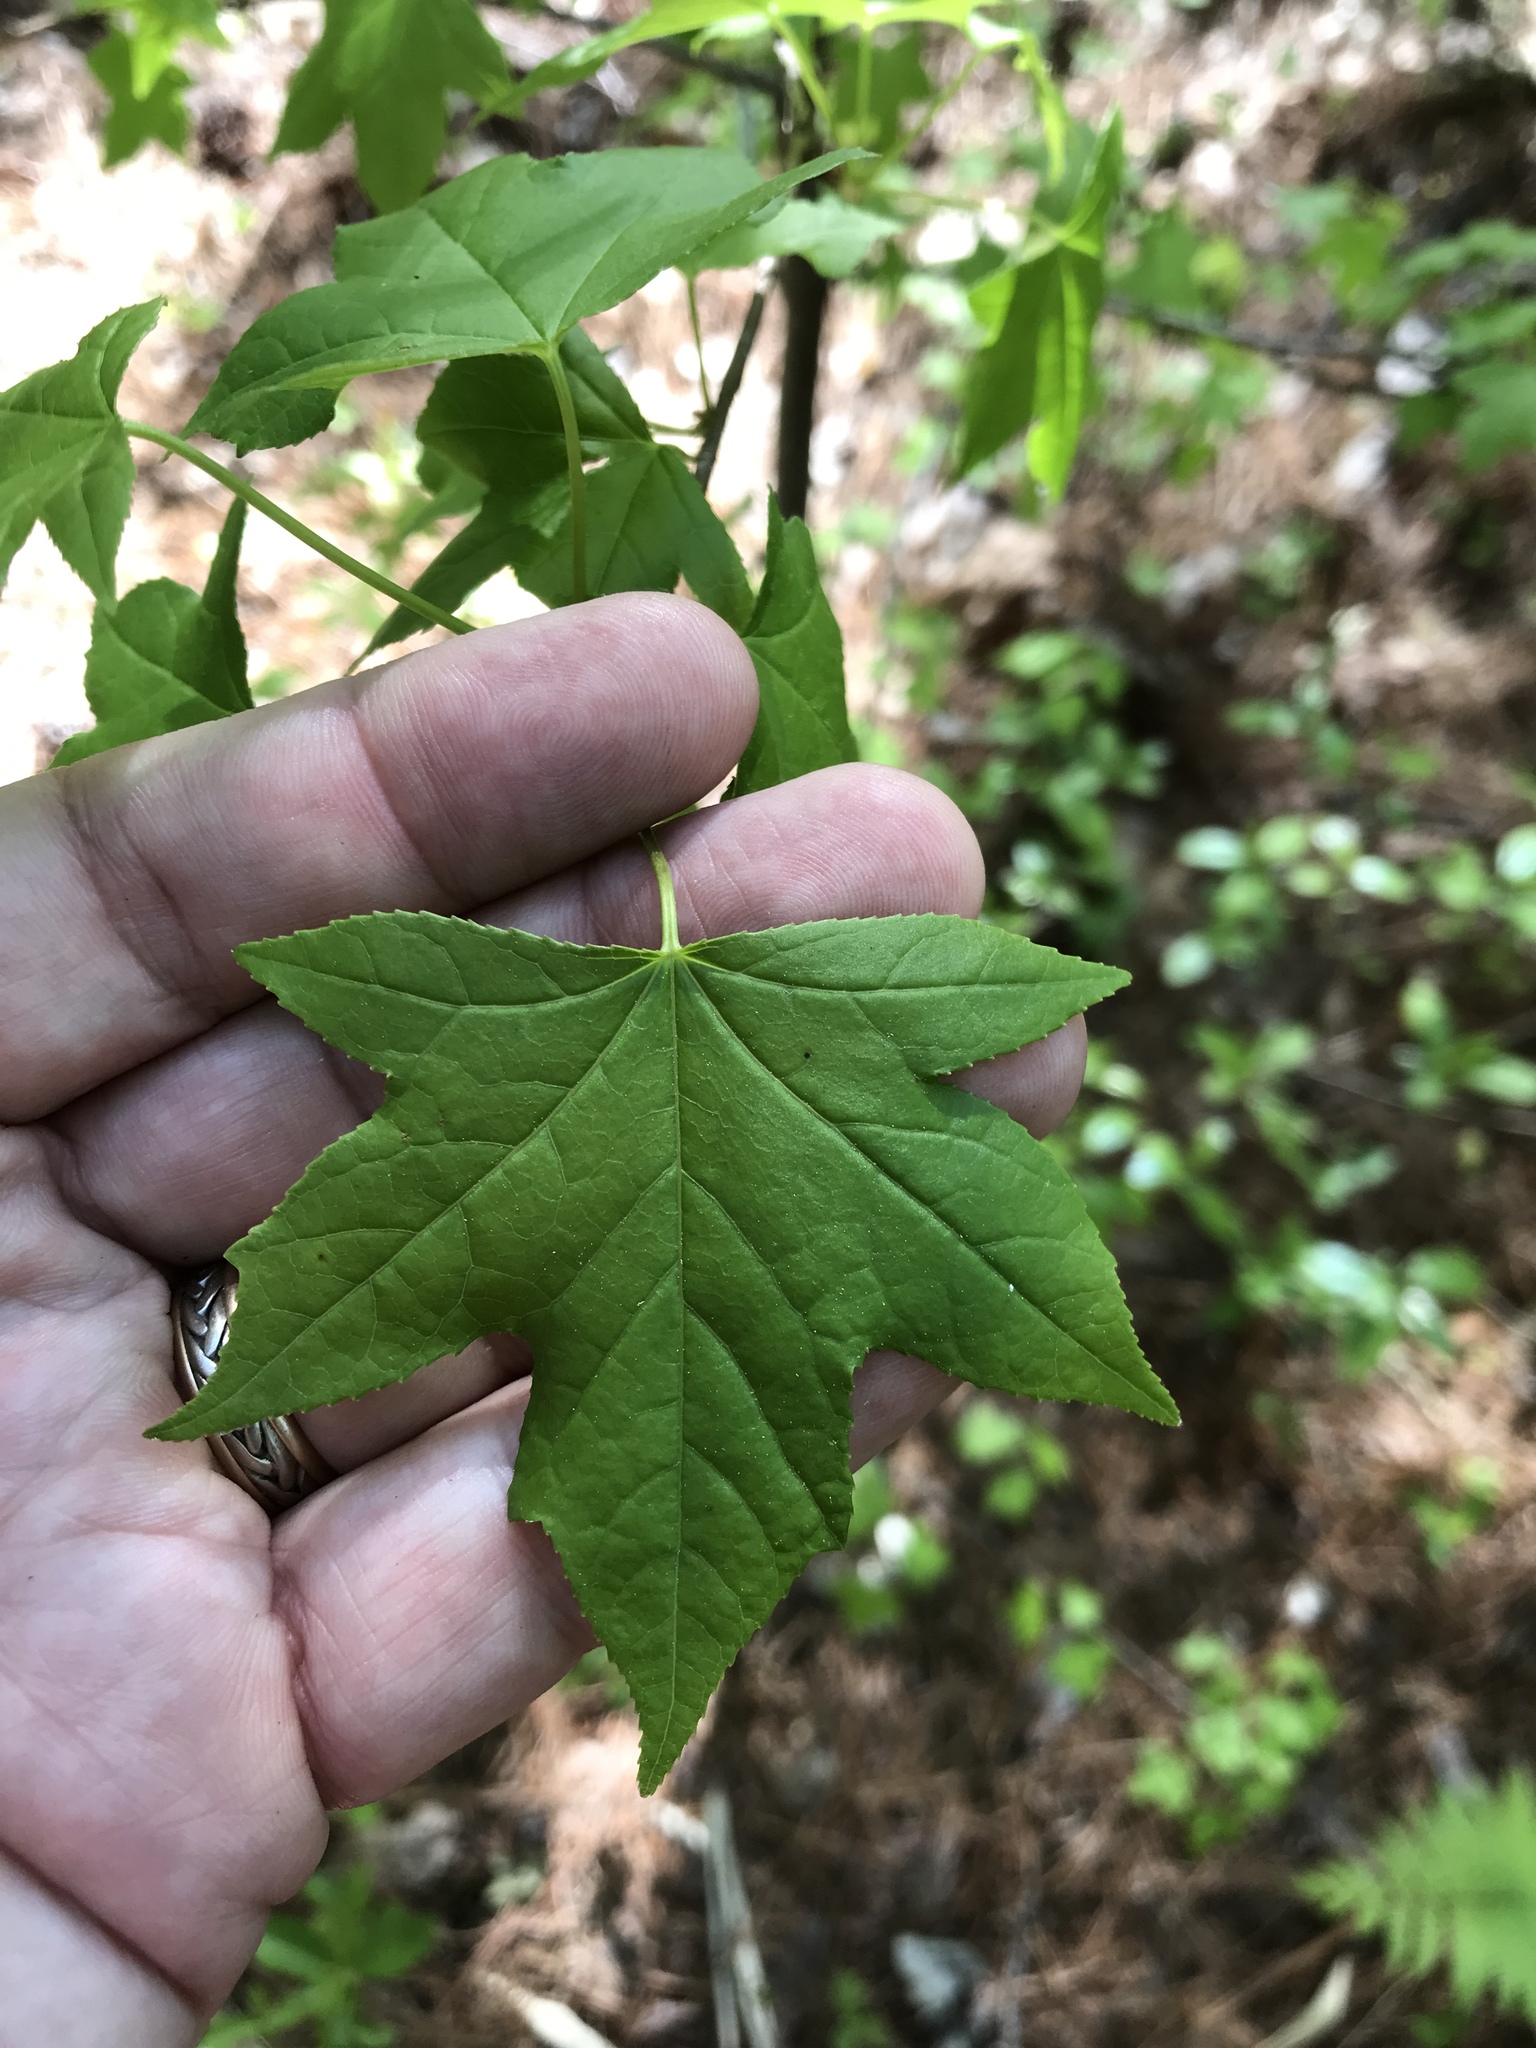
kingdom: Plantae
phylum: Tracheophyta
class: Magnoliopsida
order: Saxifragales
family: Altingiaceae
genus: Liquidambar
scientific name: Liquidambar styraciflua
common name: Sweet gum
